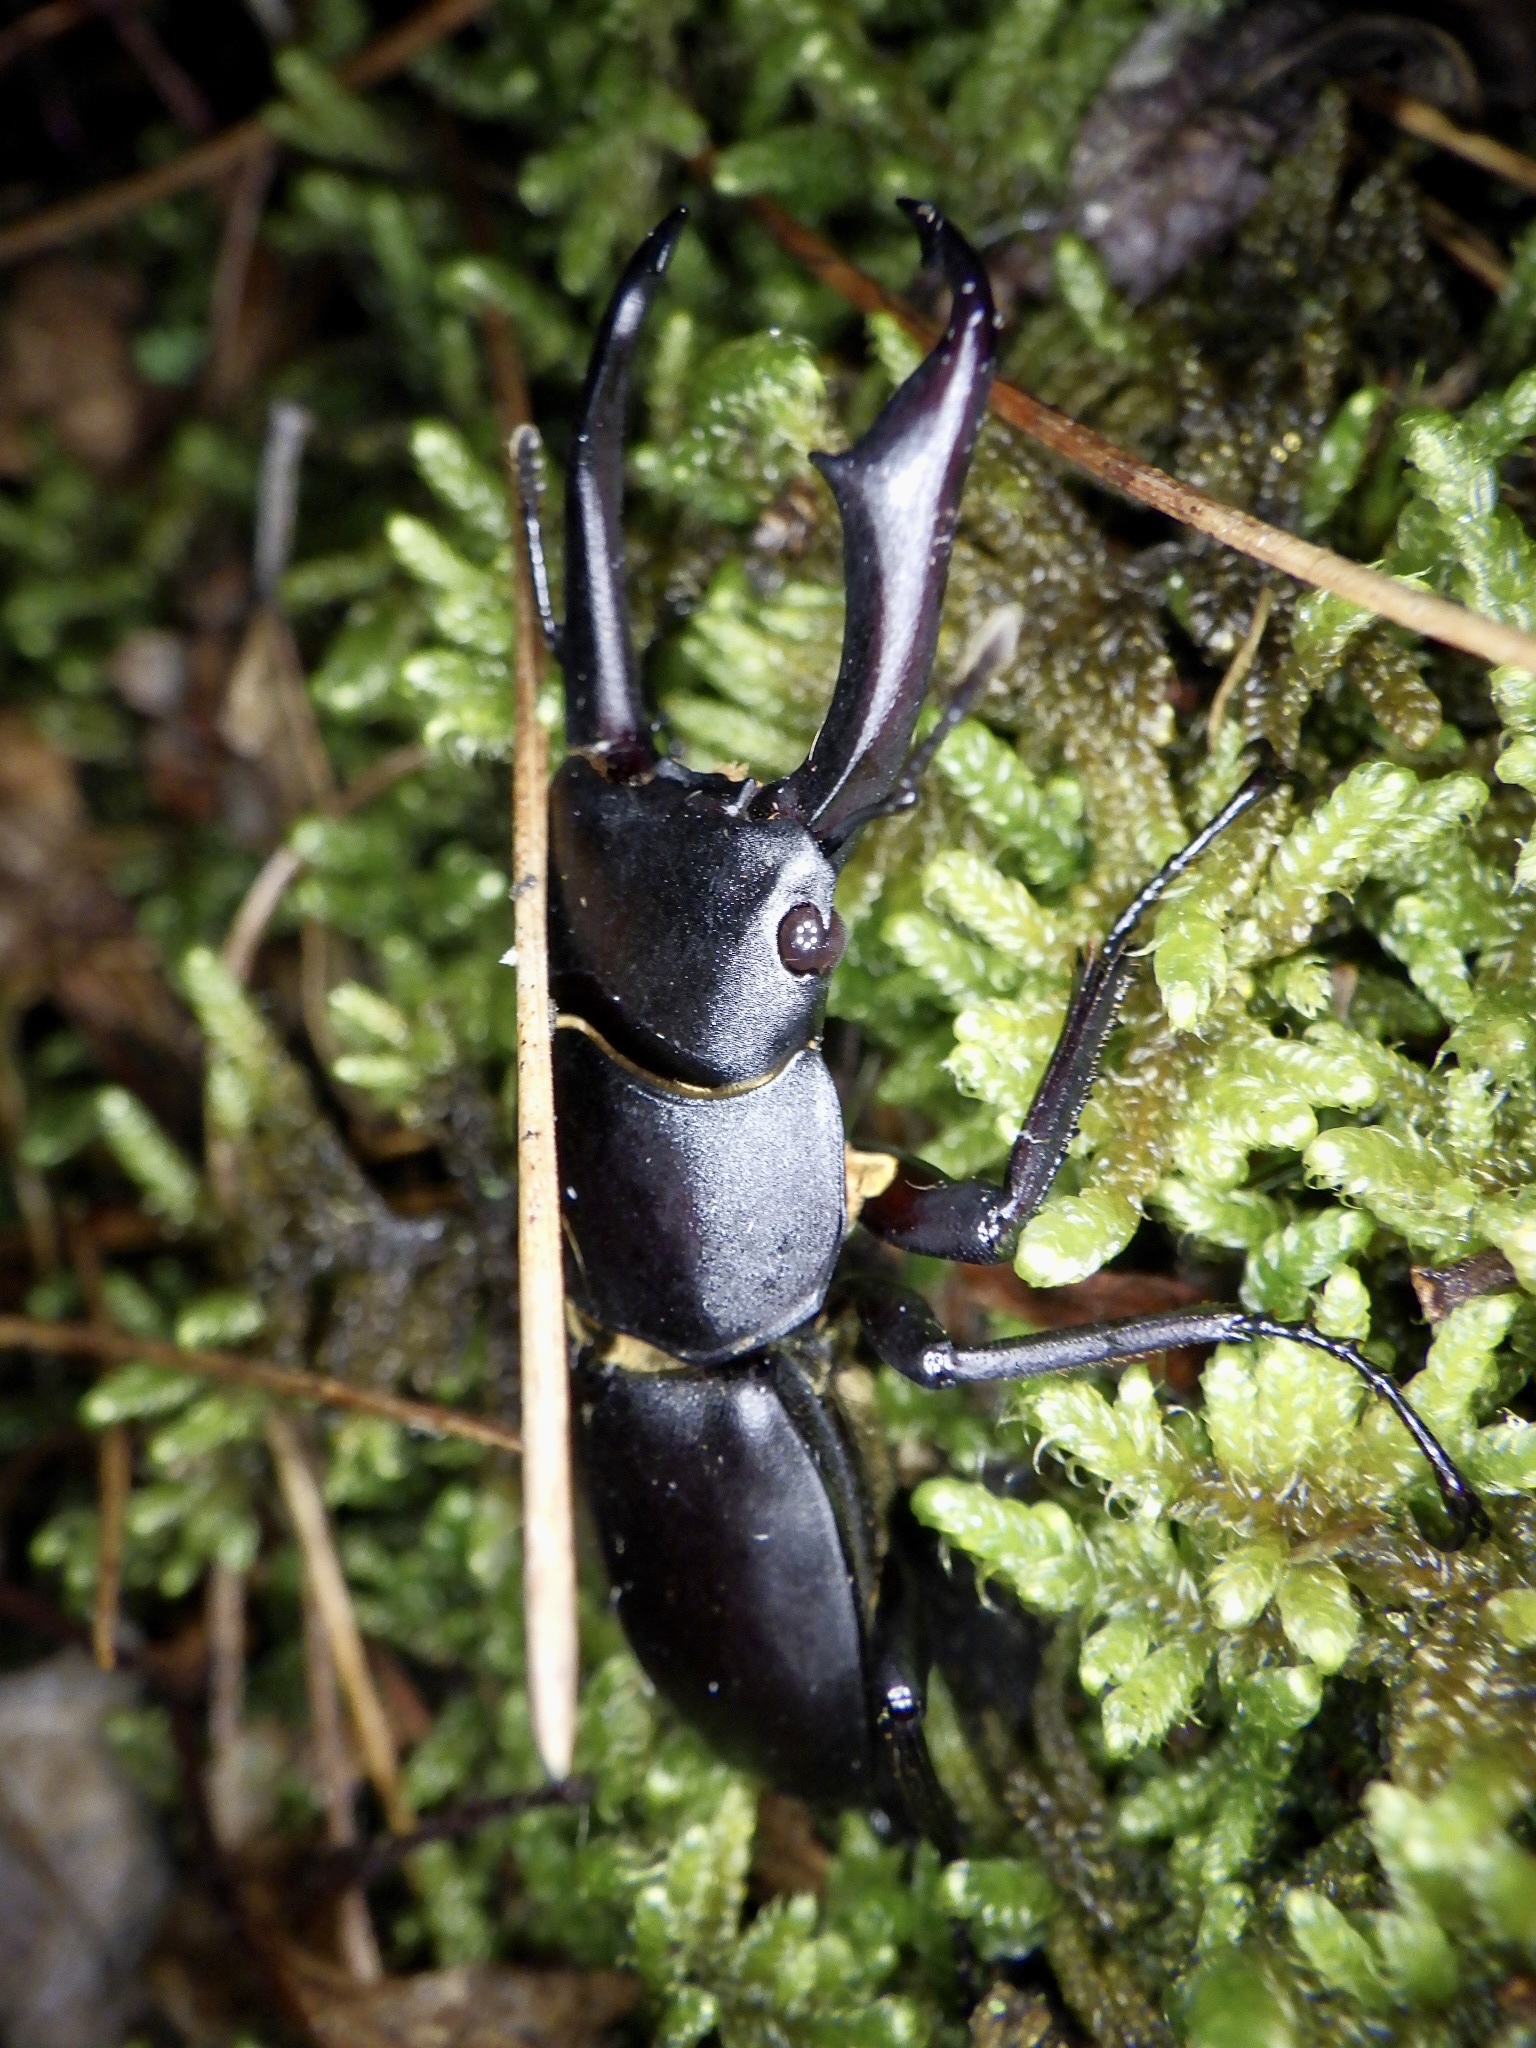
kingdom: Animalia
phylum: Arthropoda
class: Insecta
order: Coleoptera
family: Lucanidae
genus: Dorcus
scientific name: Dorcus rectus
